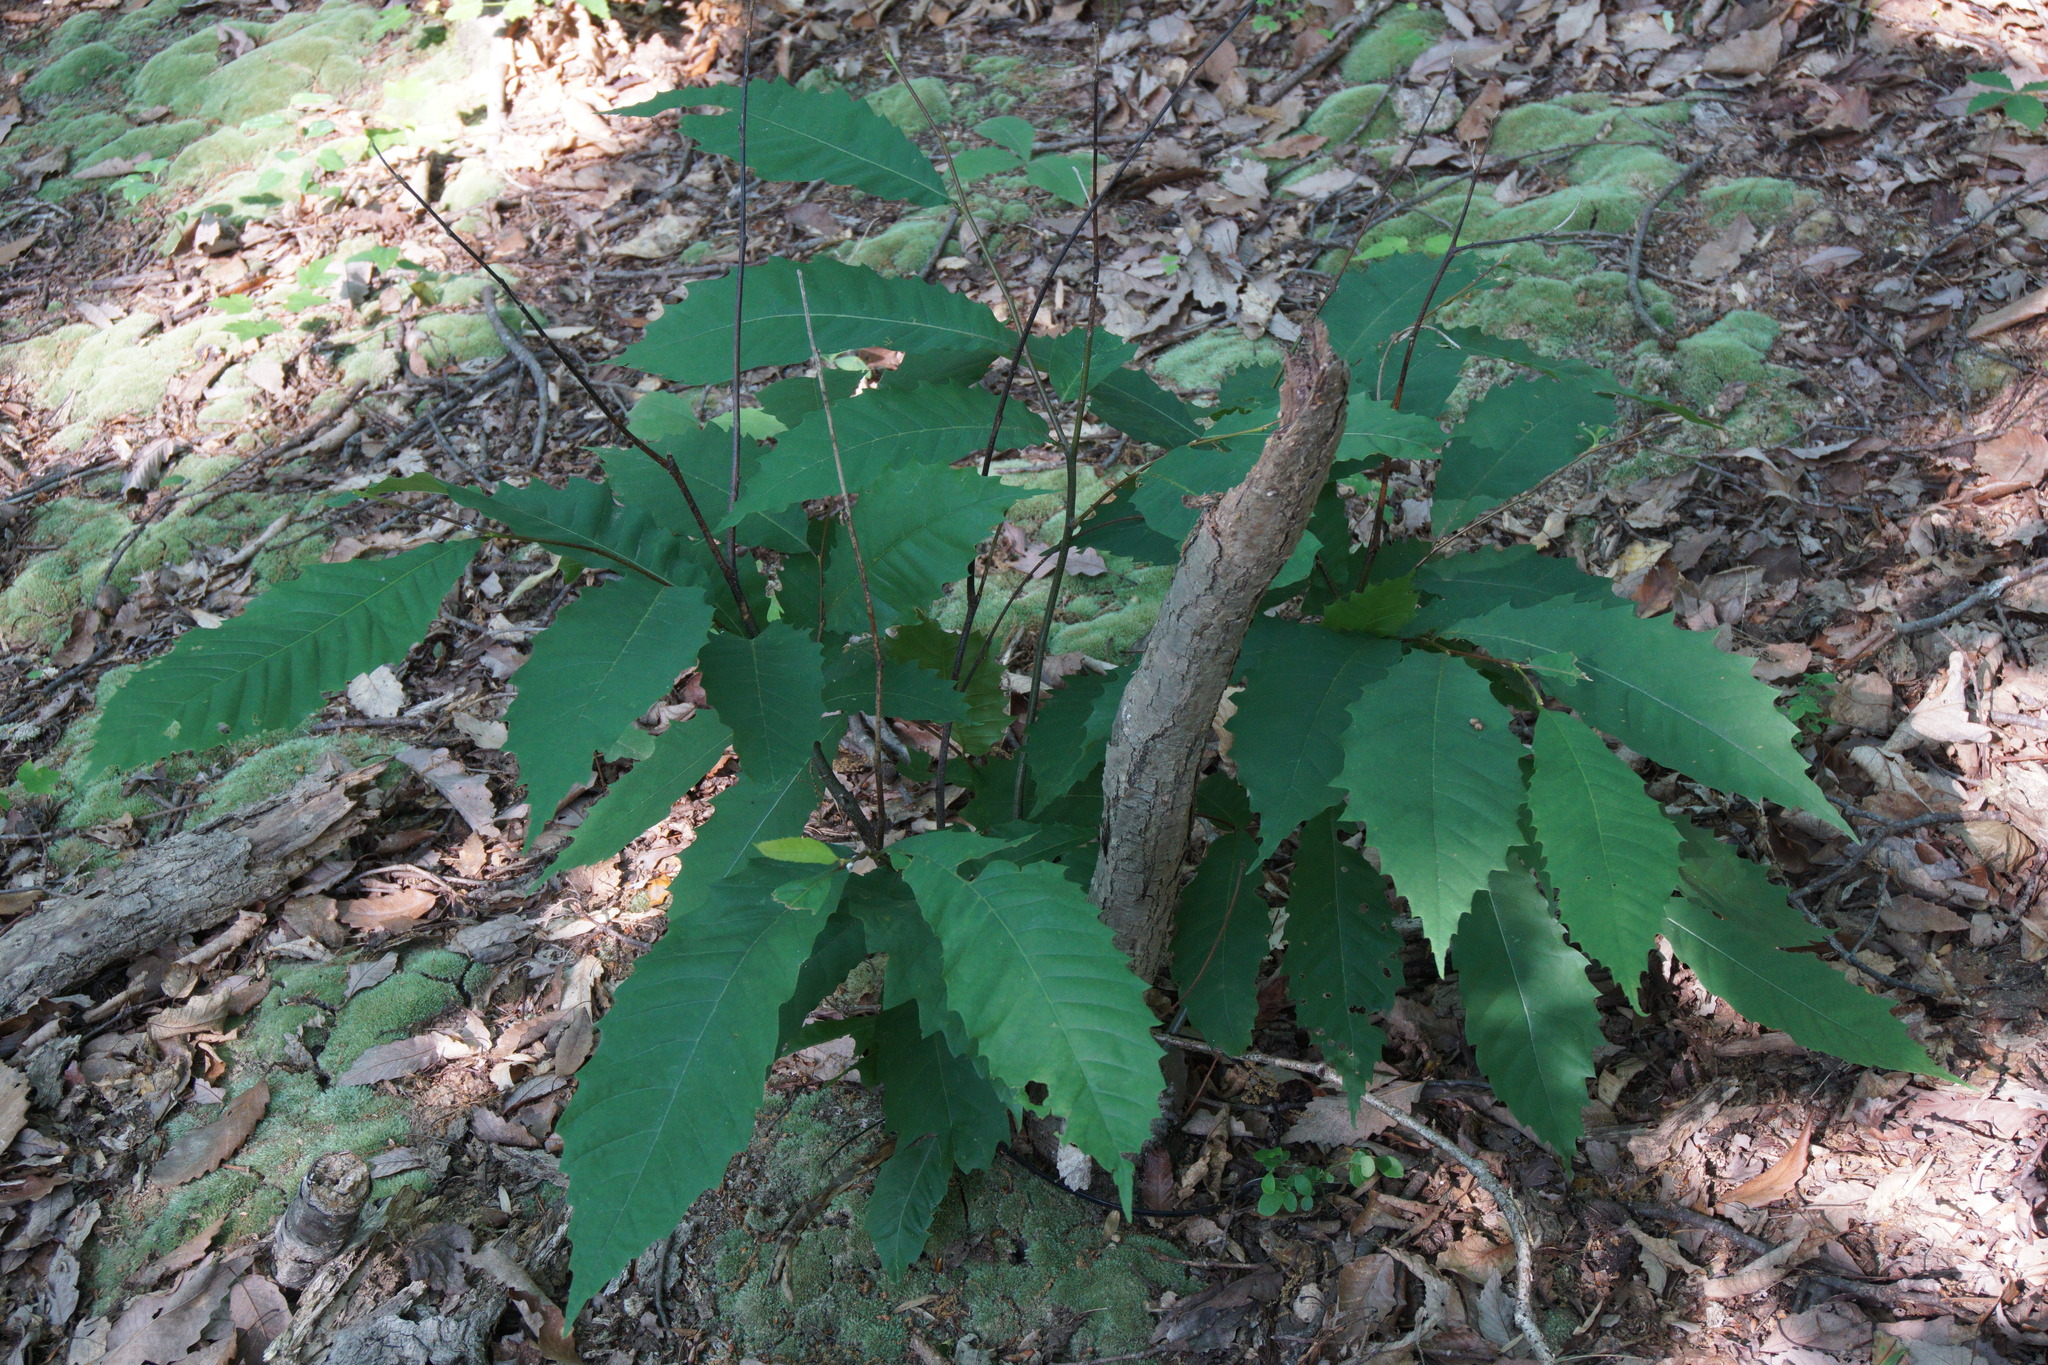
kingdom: Plantae
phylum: Tracheophyta
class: Magnoliopsida
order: Fagales
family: Fagaceae
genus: Castanea
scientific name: Castanea dentata
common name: American chestnut
